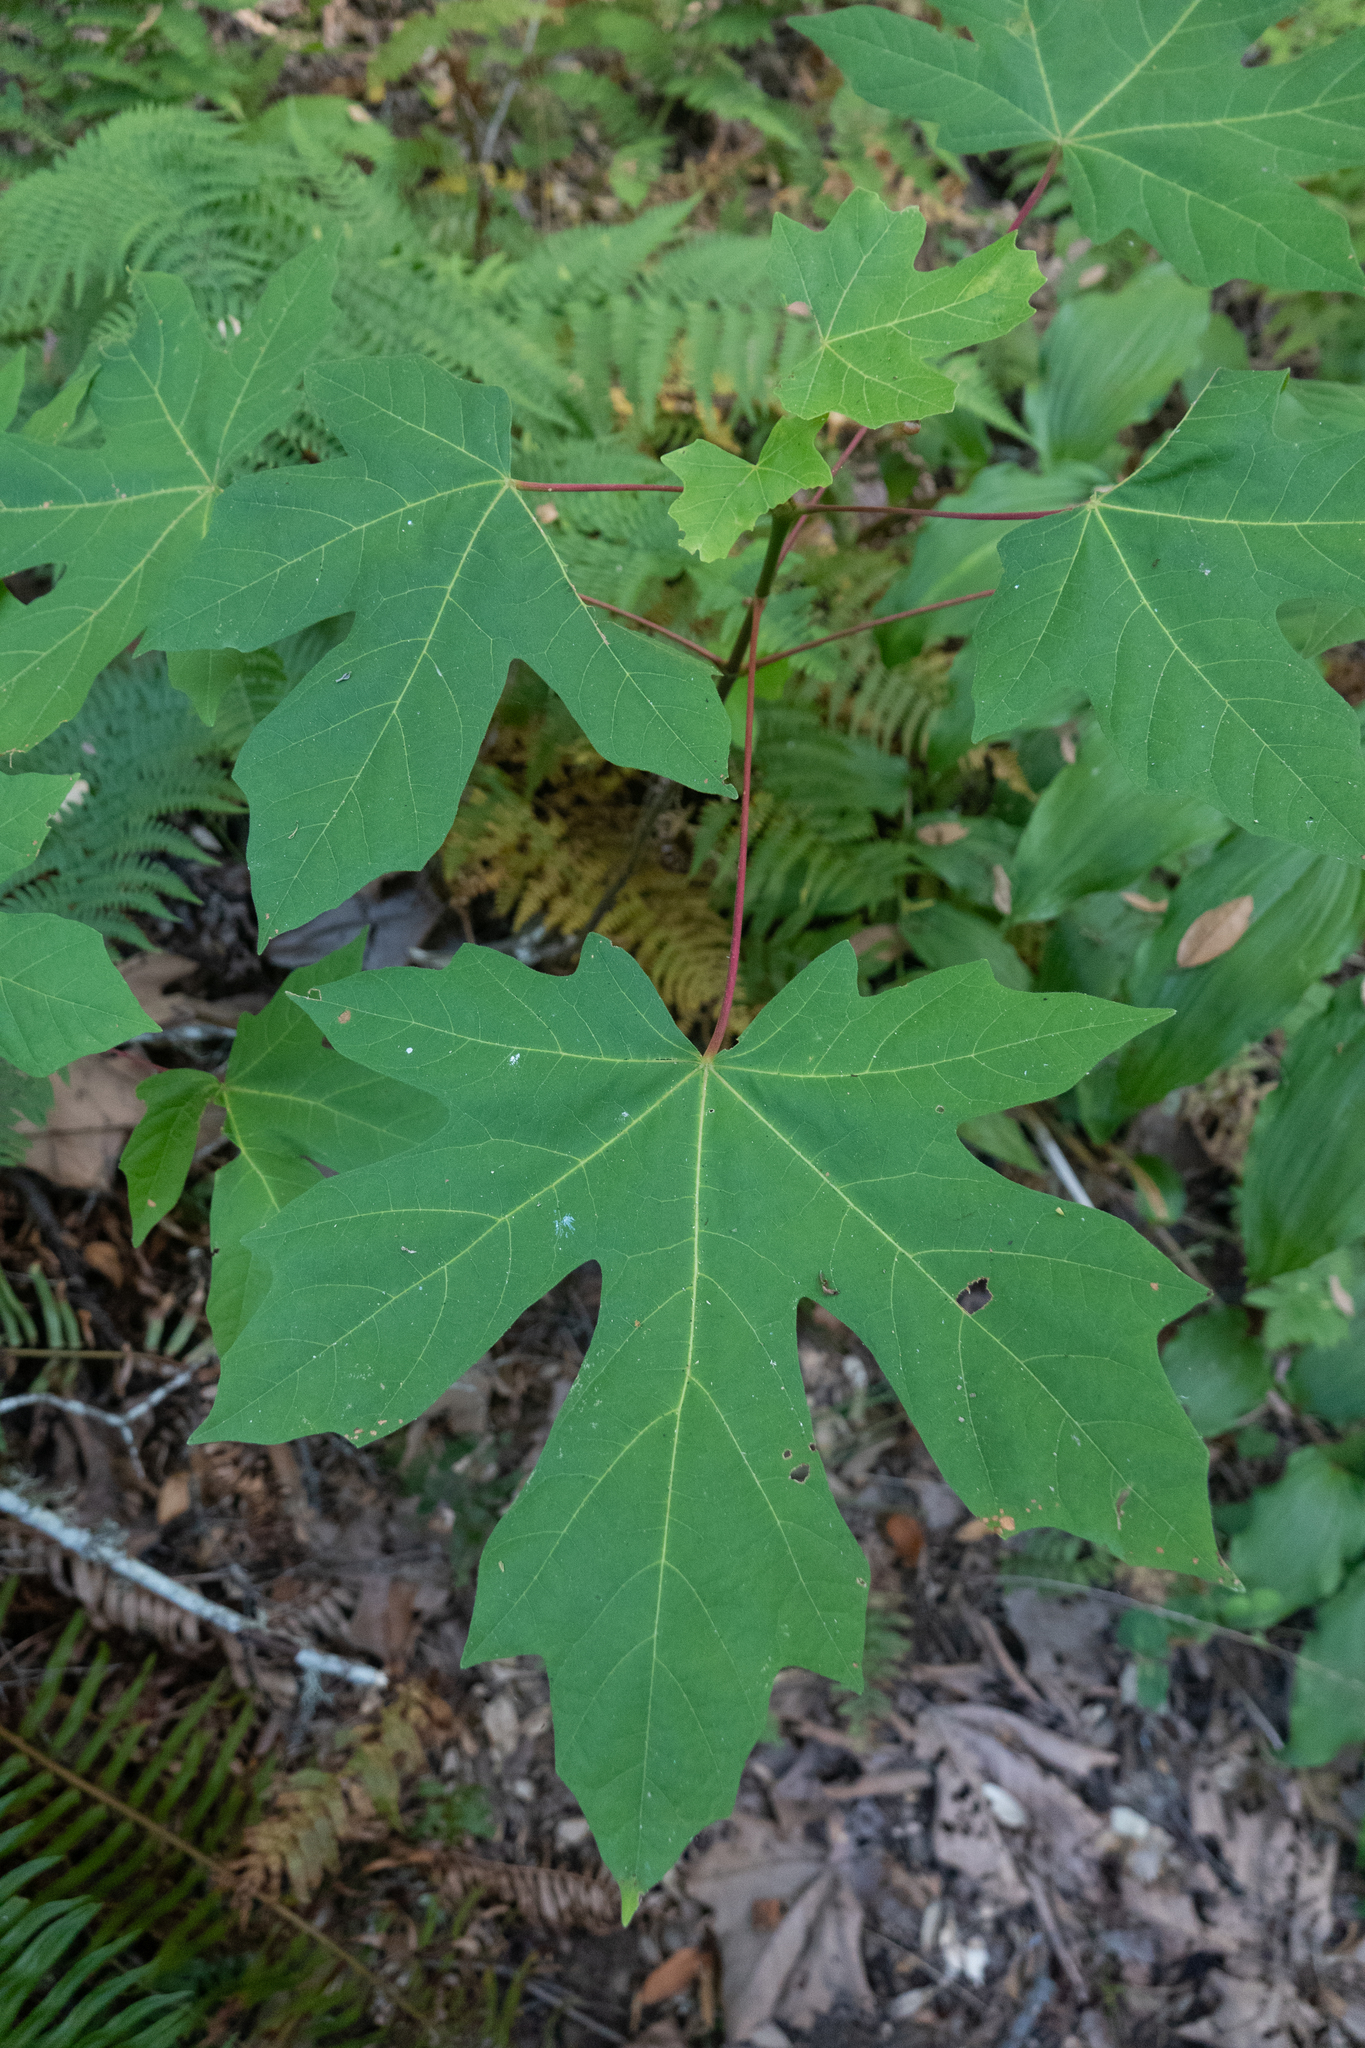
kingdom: Plantae
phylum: Tracheophyta
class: Magnoliopsida
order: Sapindales
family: Sapindaceae
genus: Acer
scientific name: Acer macrophyllum
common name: Oregon maple
